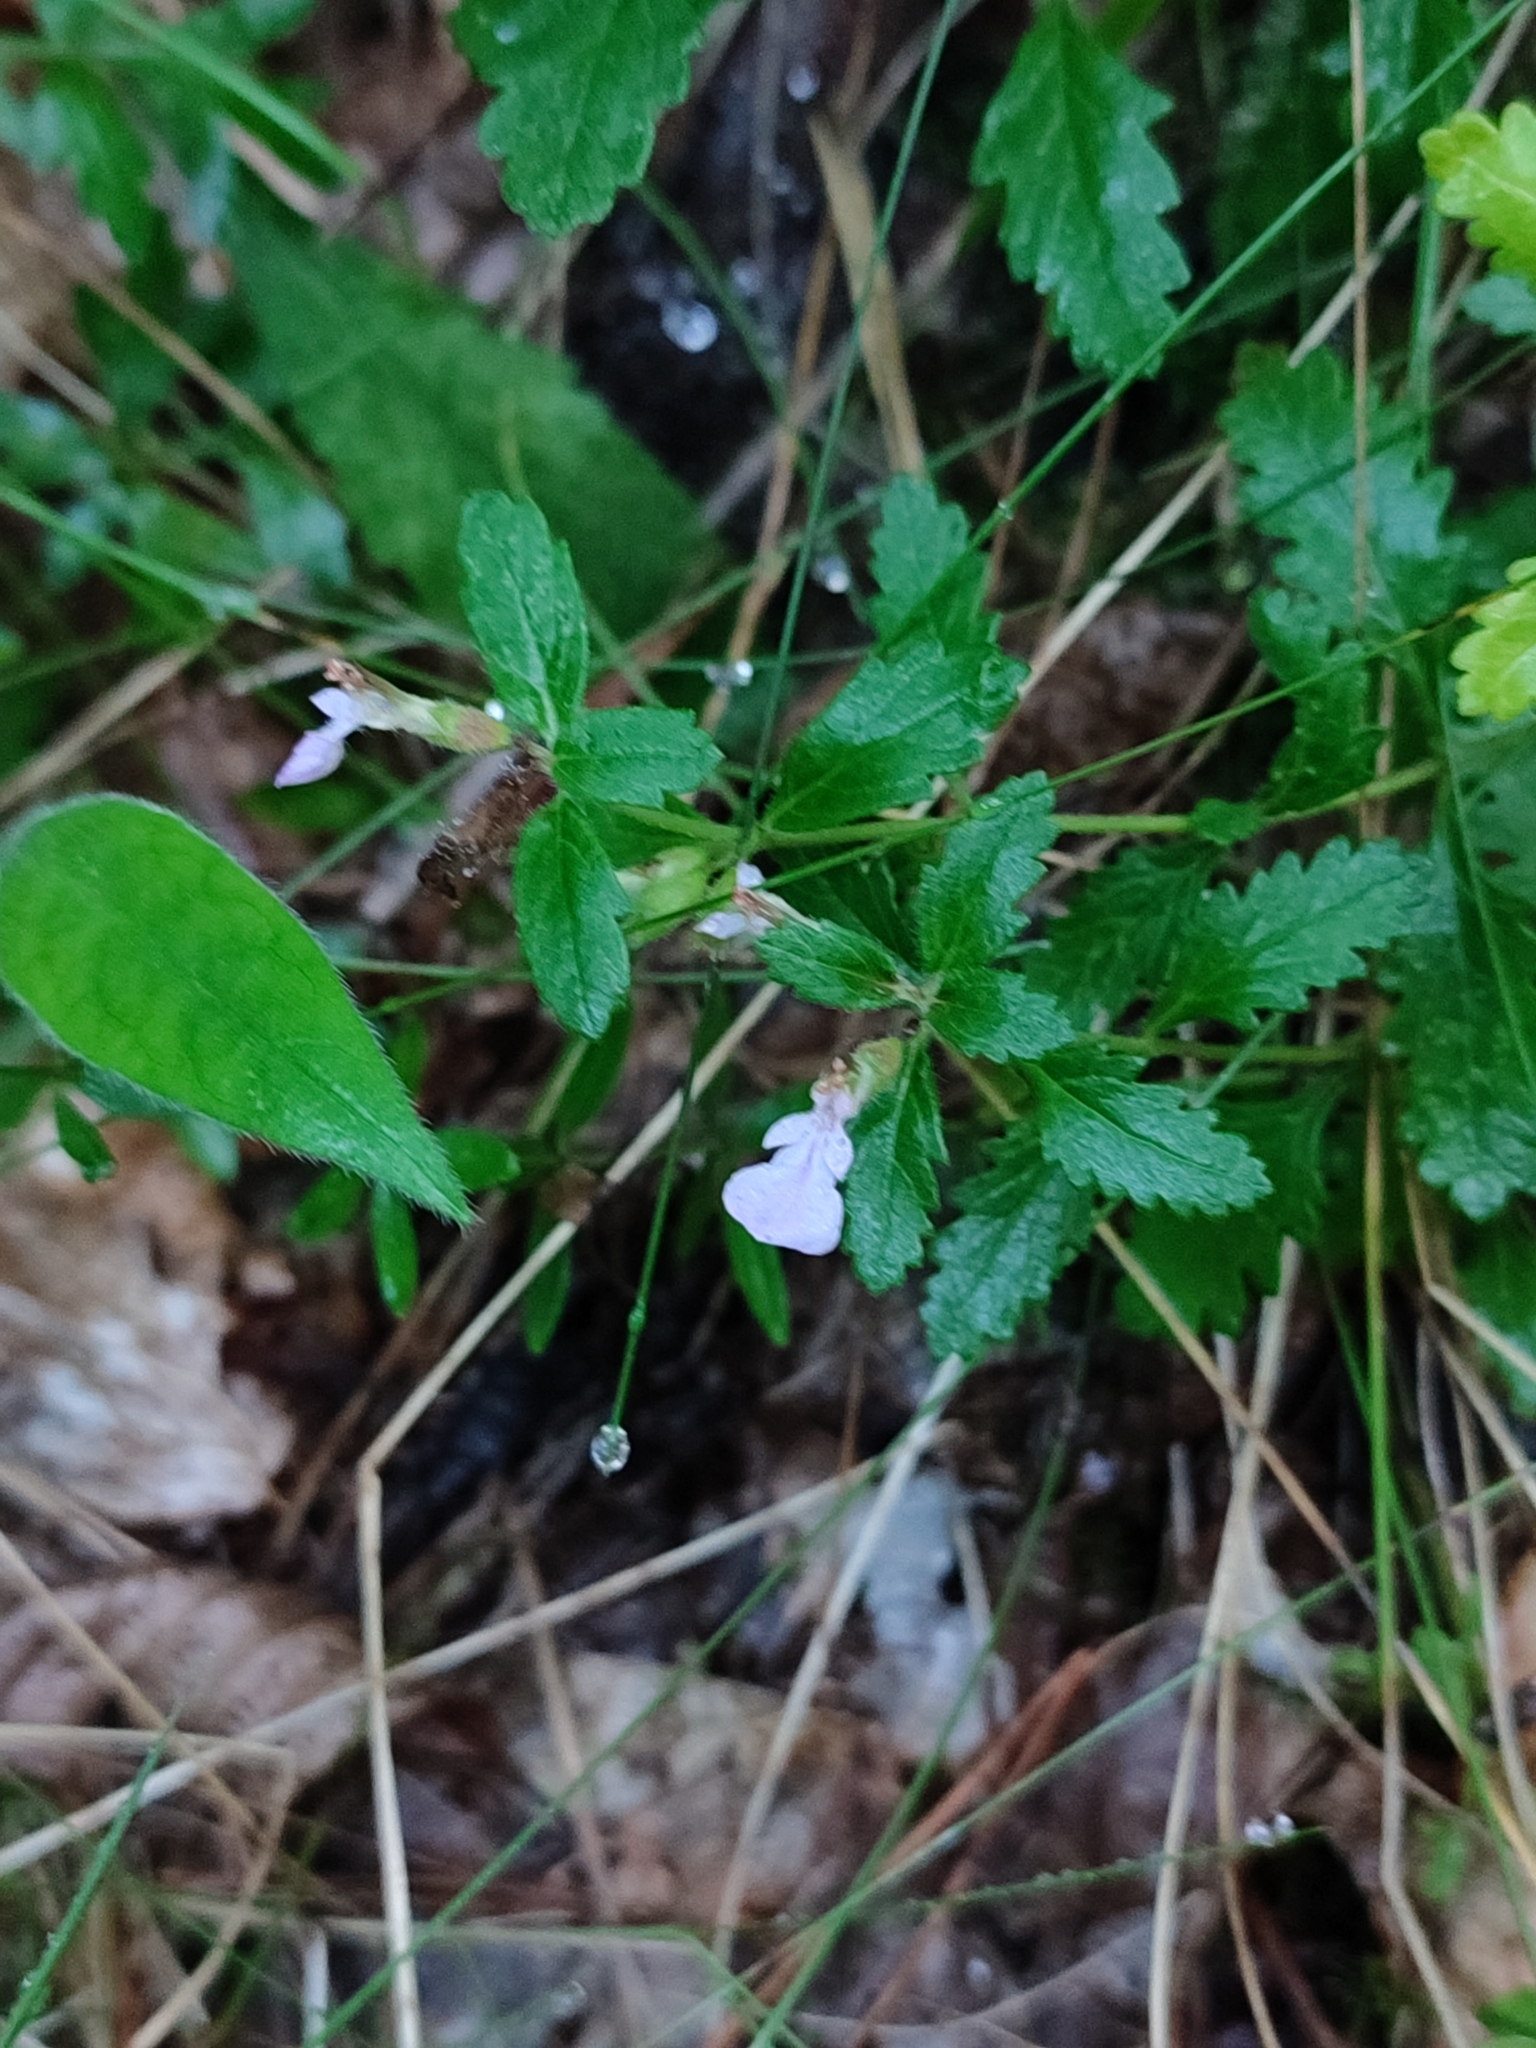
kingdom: Plantae
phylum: Tracheophyta
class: Magnoliopsida
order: Lamiales
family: Lamiaceae
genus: Teucrium
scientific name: Teucrium chamaedrys
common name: Wall germander
